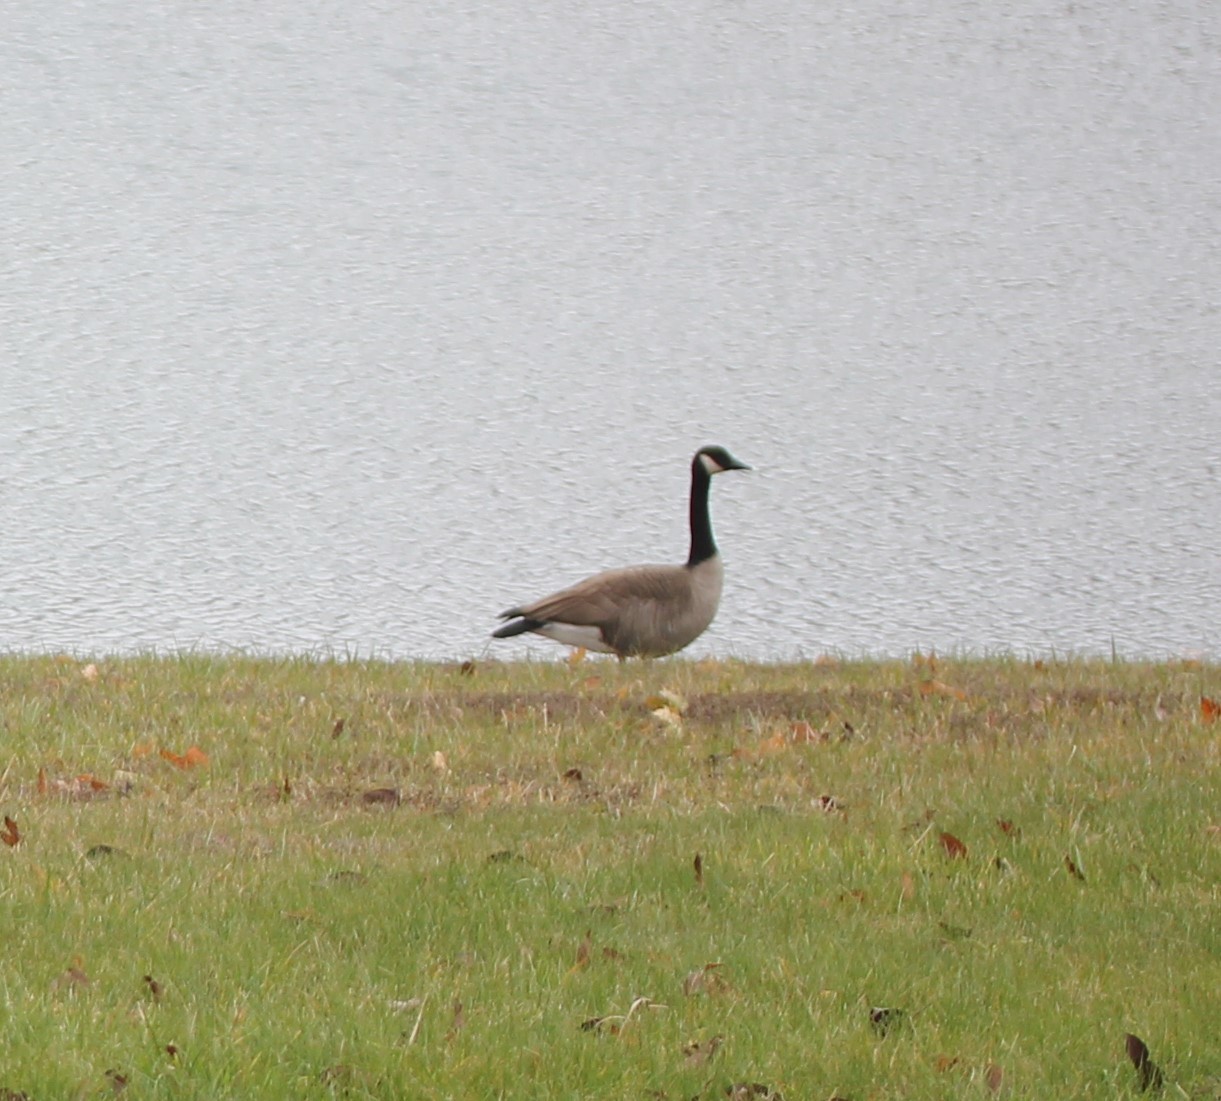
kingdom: Animalia
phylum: Chordata
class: Aves
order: Anseriformes
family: Anatidae
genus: Branta
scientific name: Branta canadensis
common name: Canada goose
